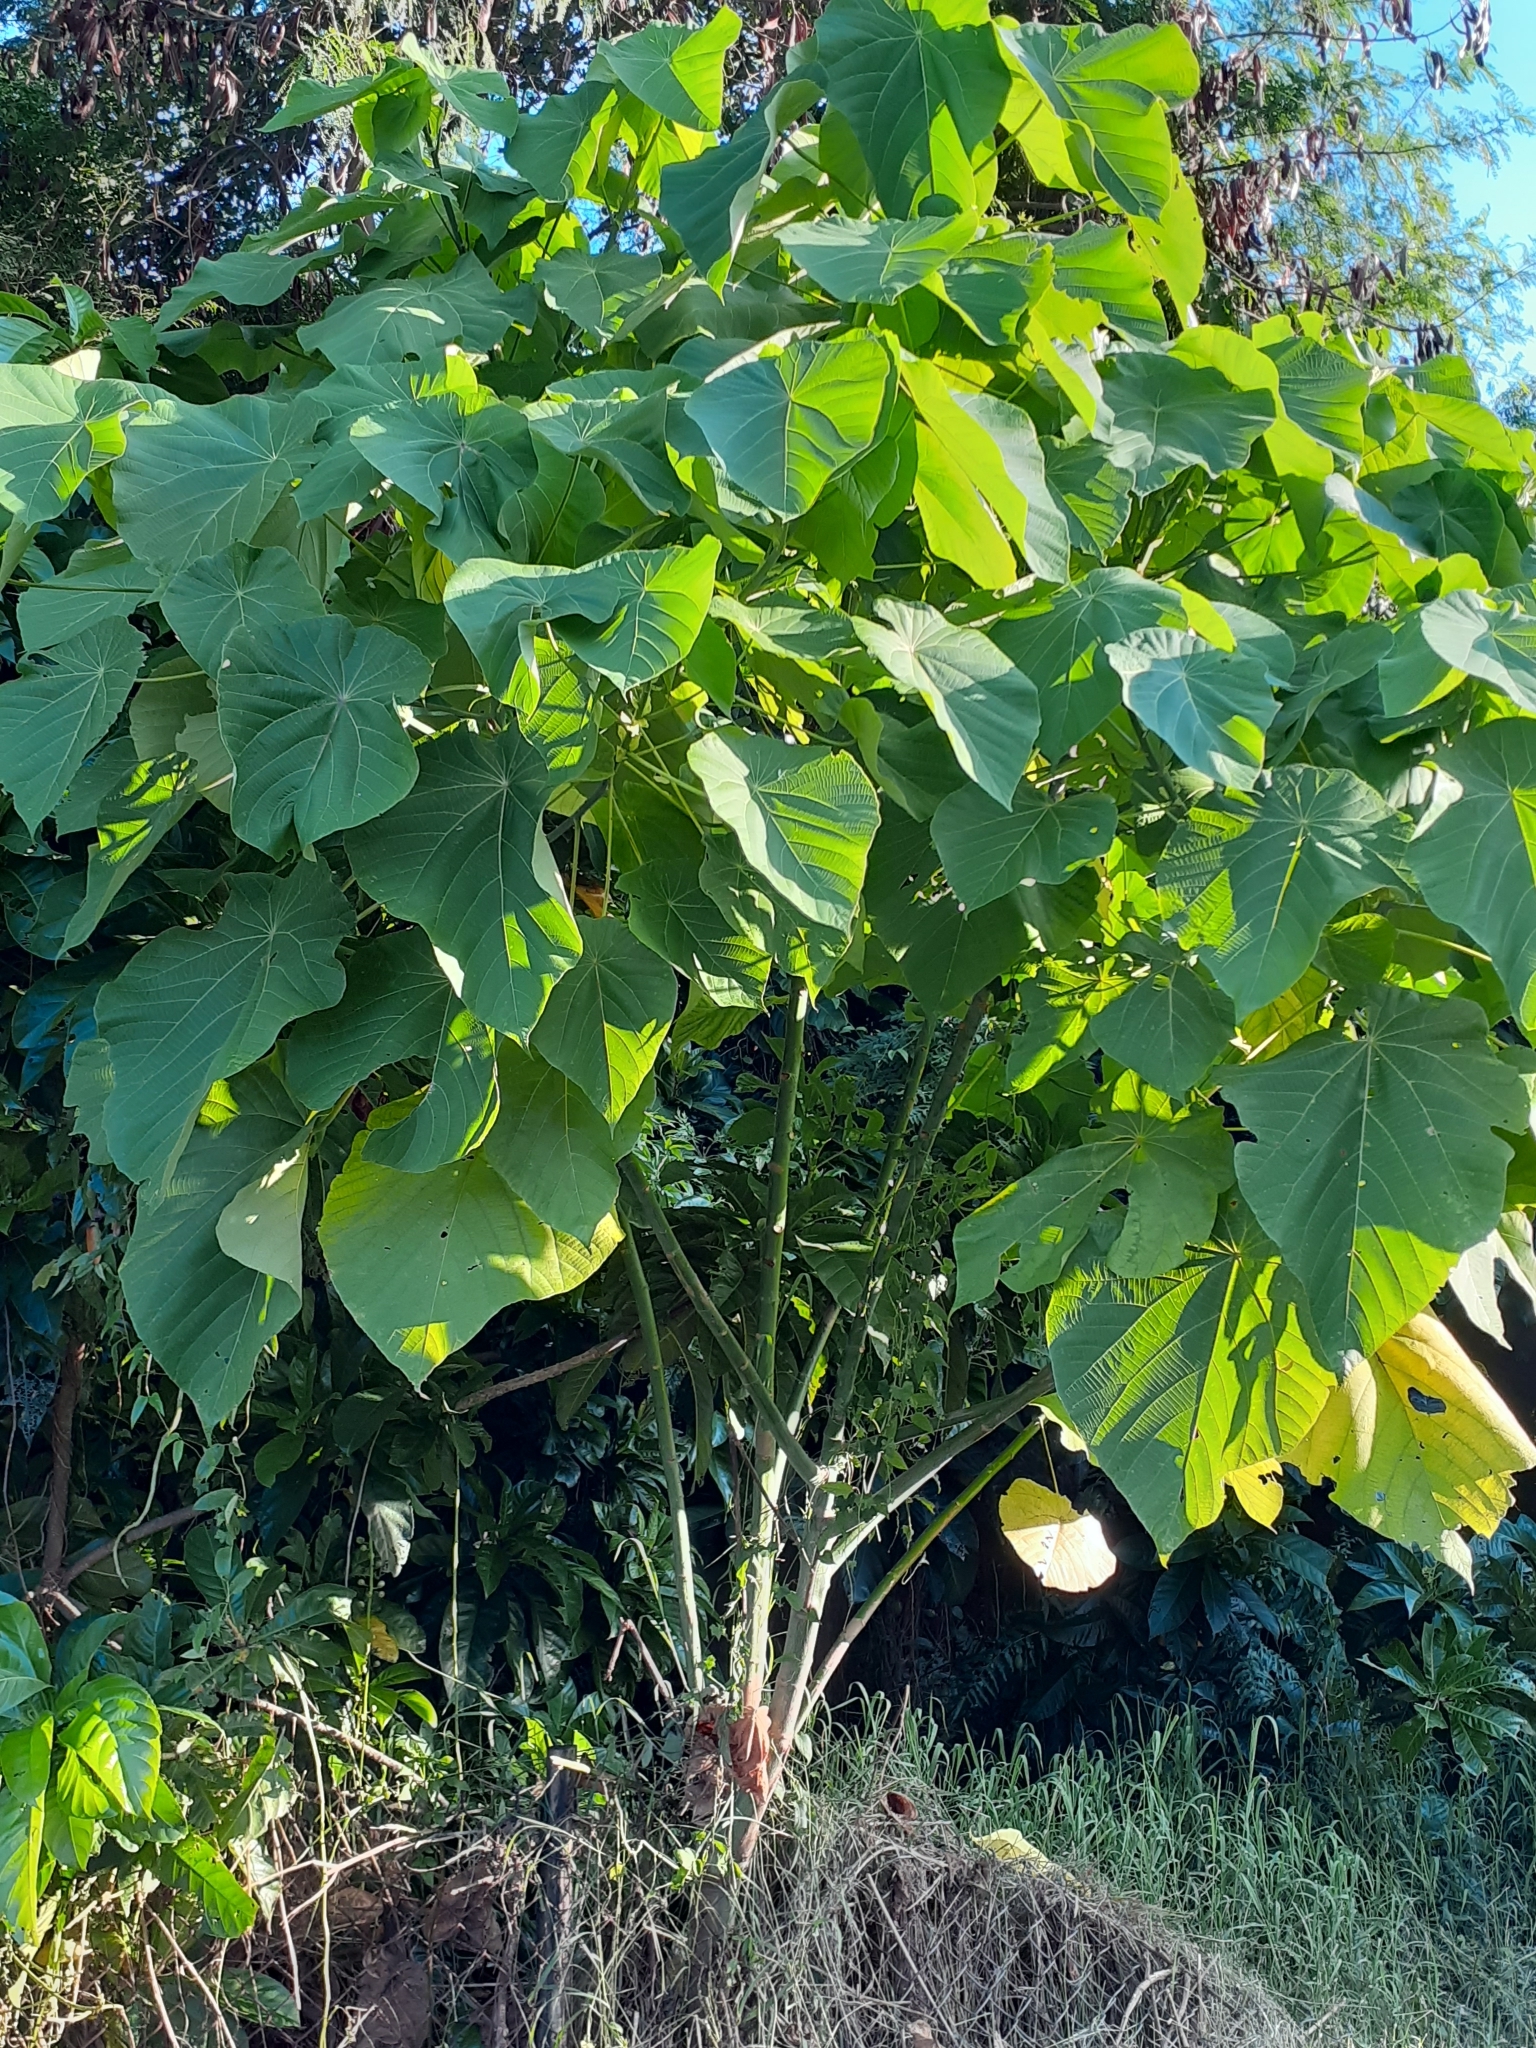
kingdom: Plantae
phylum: Tracheophyta
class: Magnoliopsida
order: Malpighiales
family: Euphorbiaceae
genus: Macaranga
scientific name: Macaranga tanarius
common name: Parasol leaf tree
